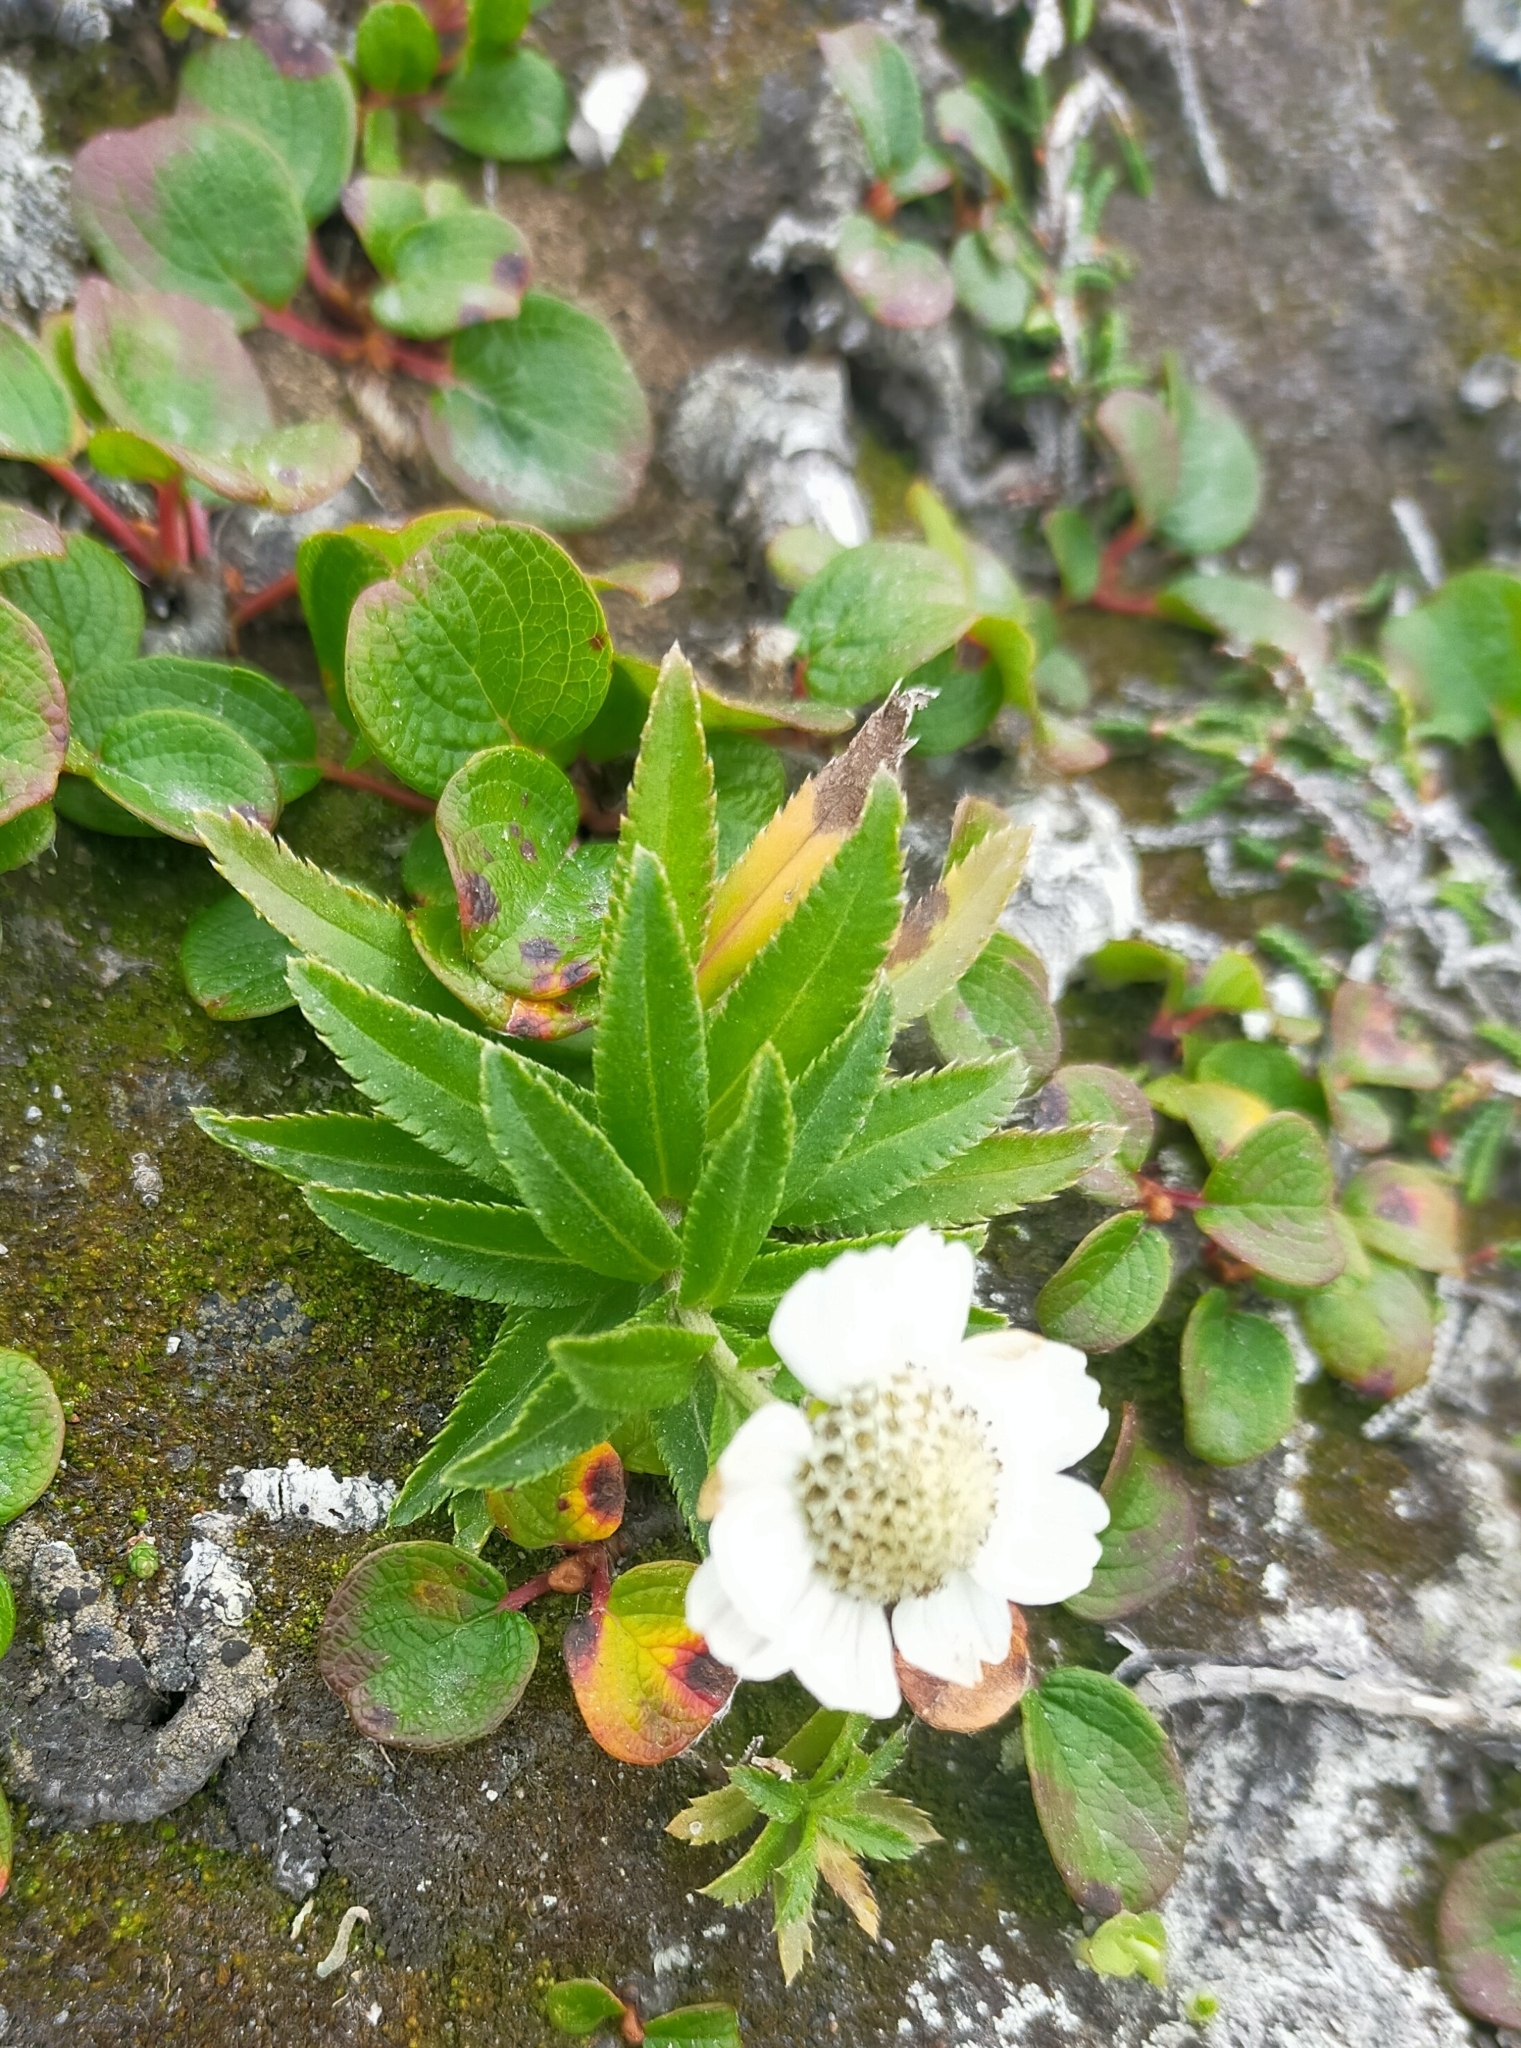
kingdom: Plantae
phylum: Tracheophyta
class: Magnoliopsida
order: Asterales
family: Asteraceae
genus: Achillea
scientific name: Achillea ptarmica
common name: Sneezeweed
